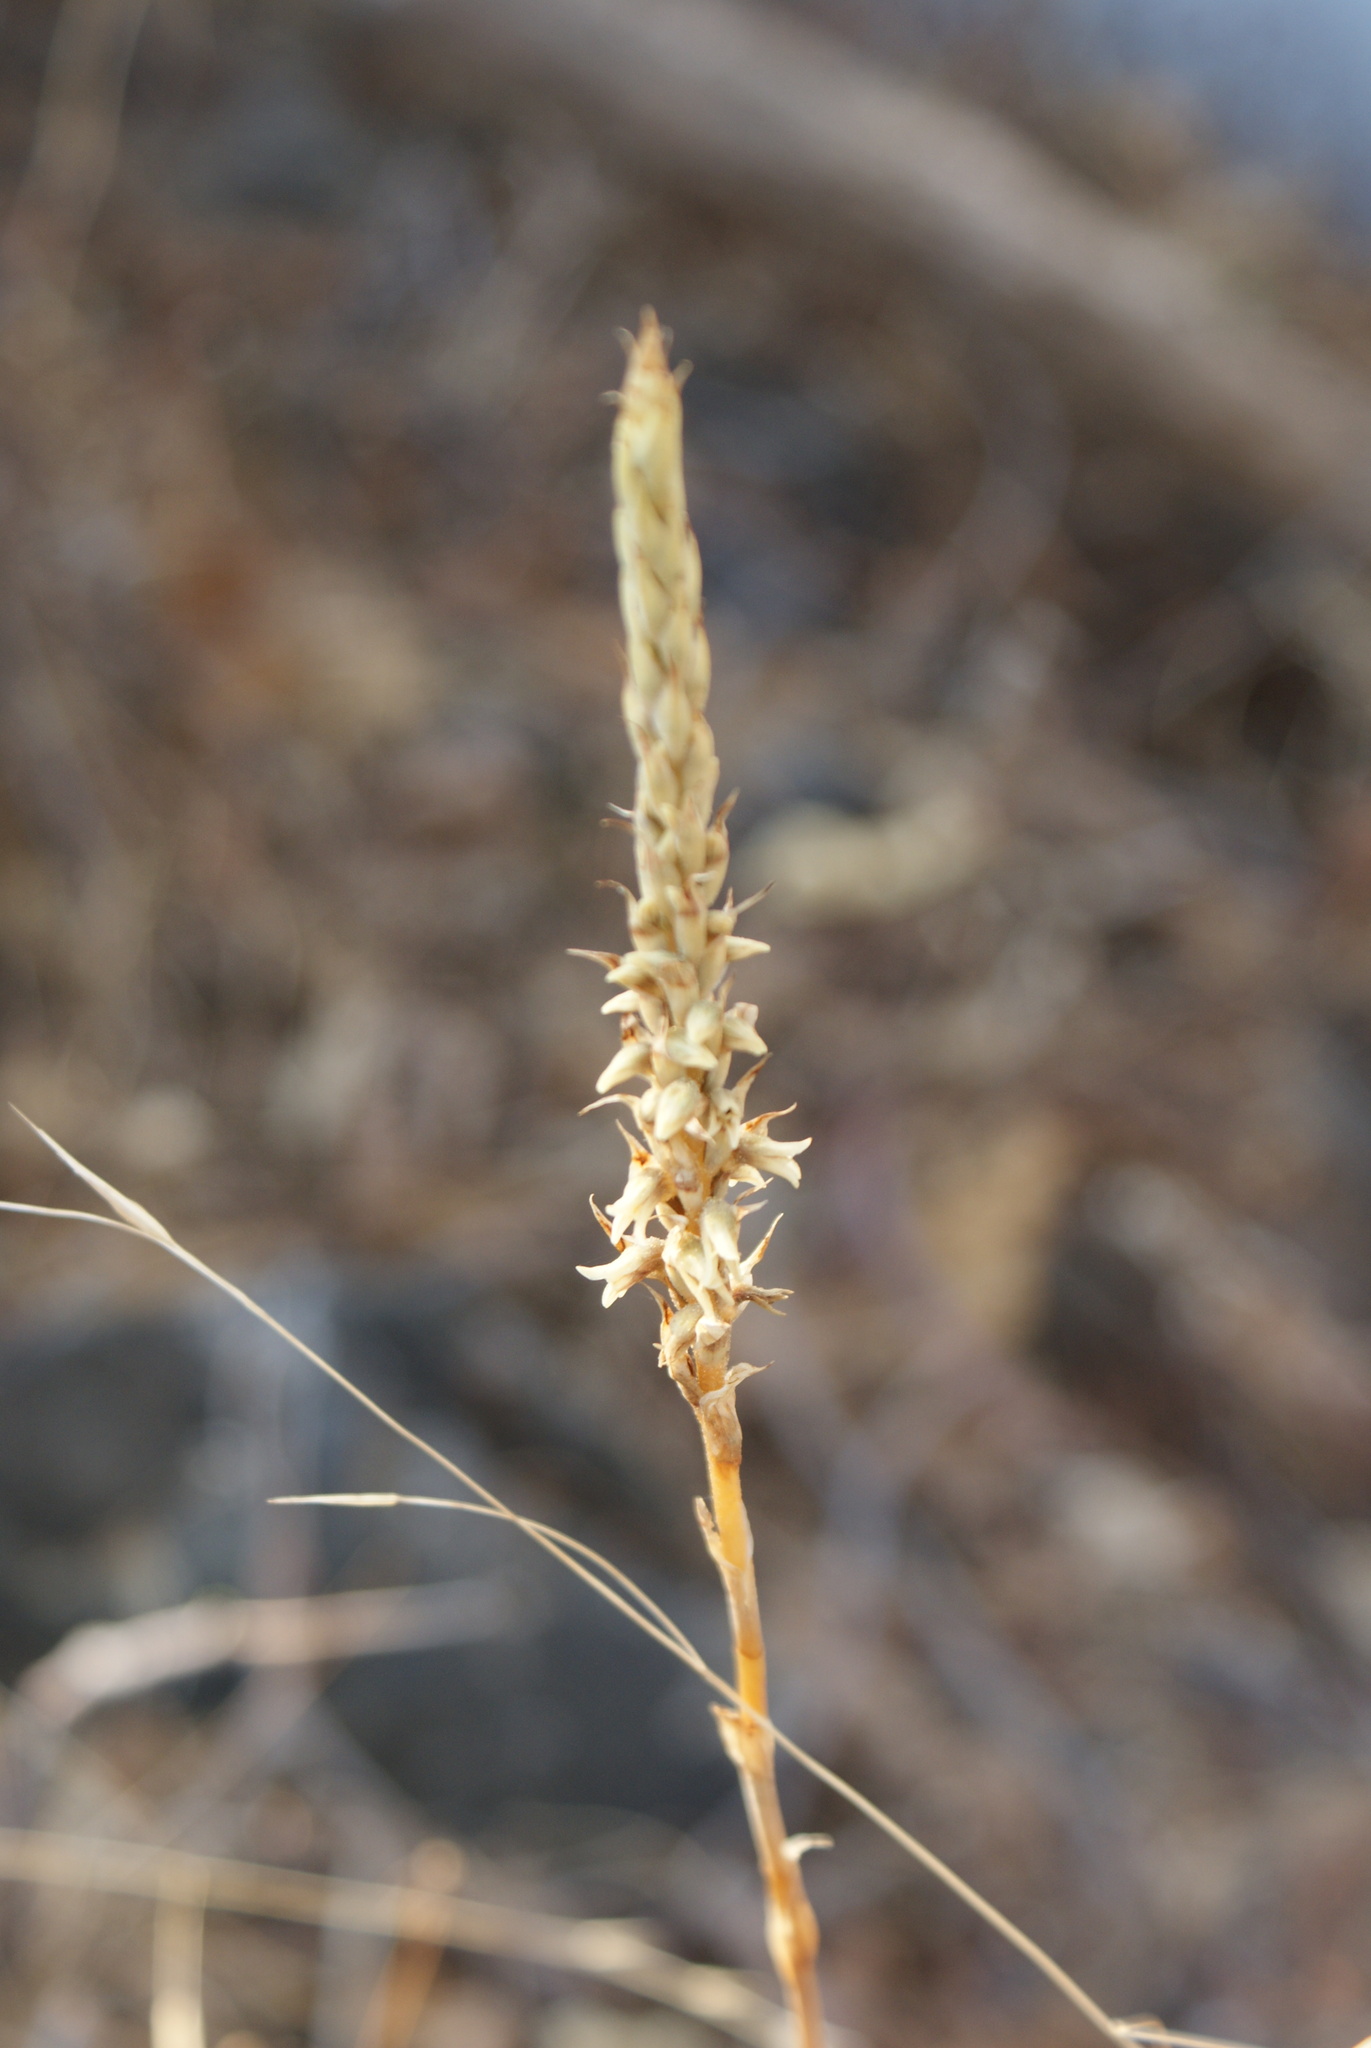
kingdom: Plantae
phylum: Tracheophyta
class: Liliopsida
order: Asparagales
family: Orchidaceae
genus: Aulosepalum
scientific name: Aulosepalum pyramidale
